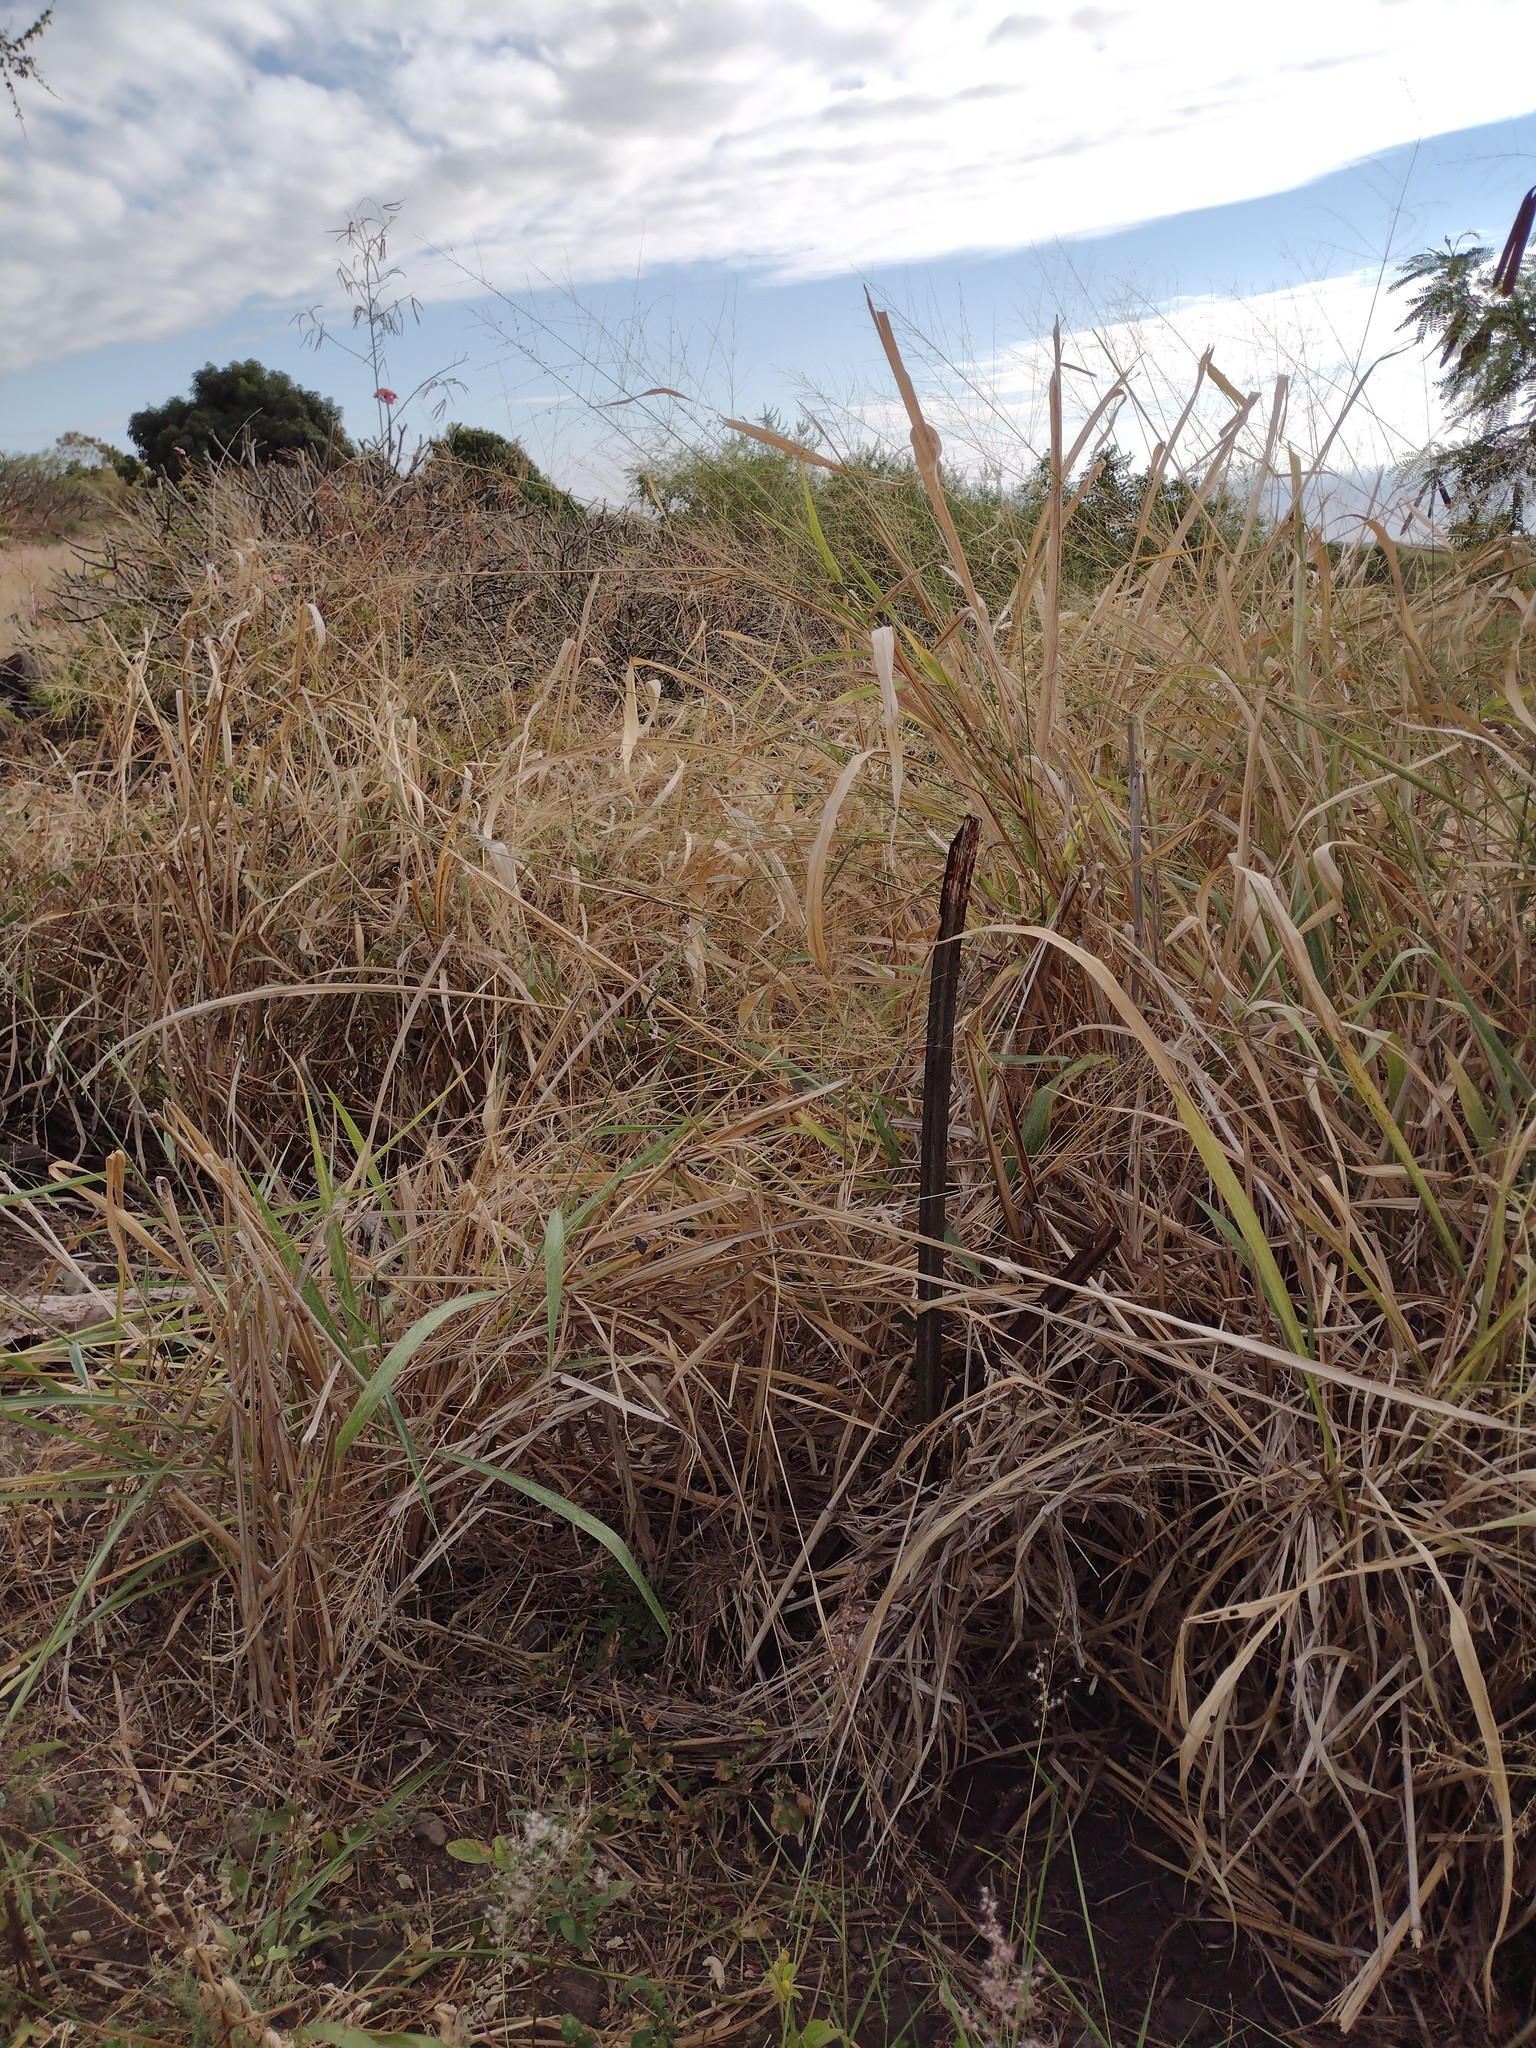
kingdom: Plantae
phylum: Tracheophyta
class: Liliopsida
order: Poales
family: Poaceae
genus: Megathyrsus
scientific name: Megathyrsus maximus
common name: Guineagrass
